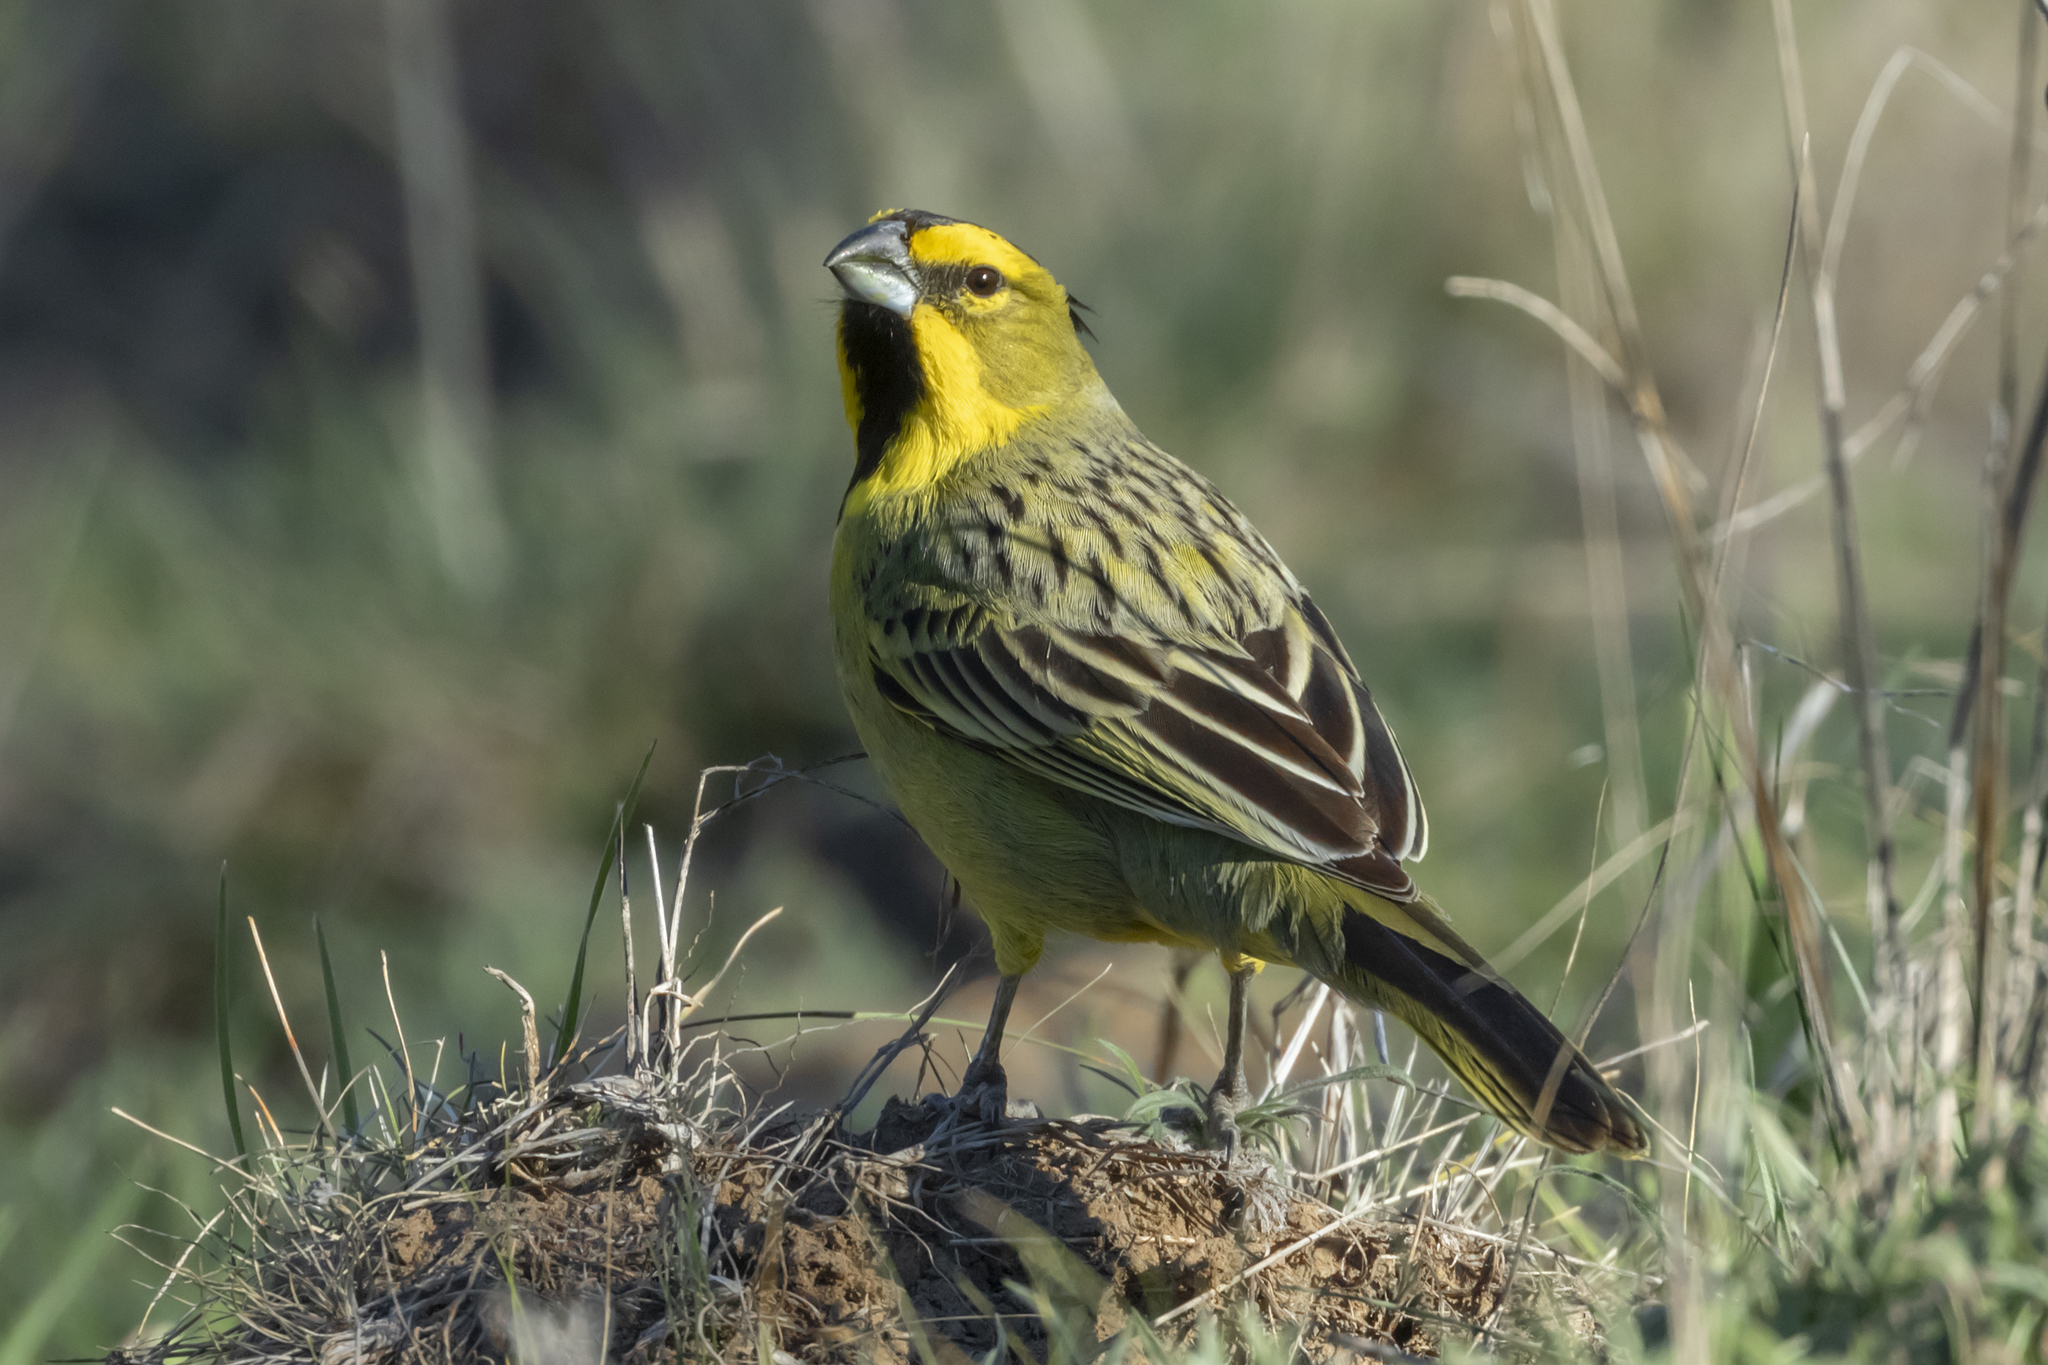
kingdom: Animalia
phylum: Chordata
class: Aves
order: Passeriformes
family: Thraupidae
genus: Gubernatrix
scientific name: Gubernatrix cristata
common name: Yellow cardinal
